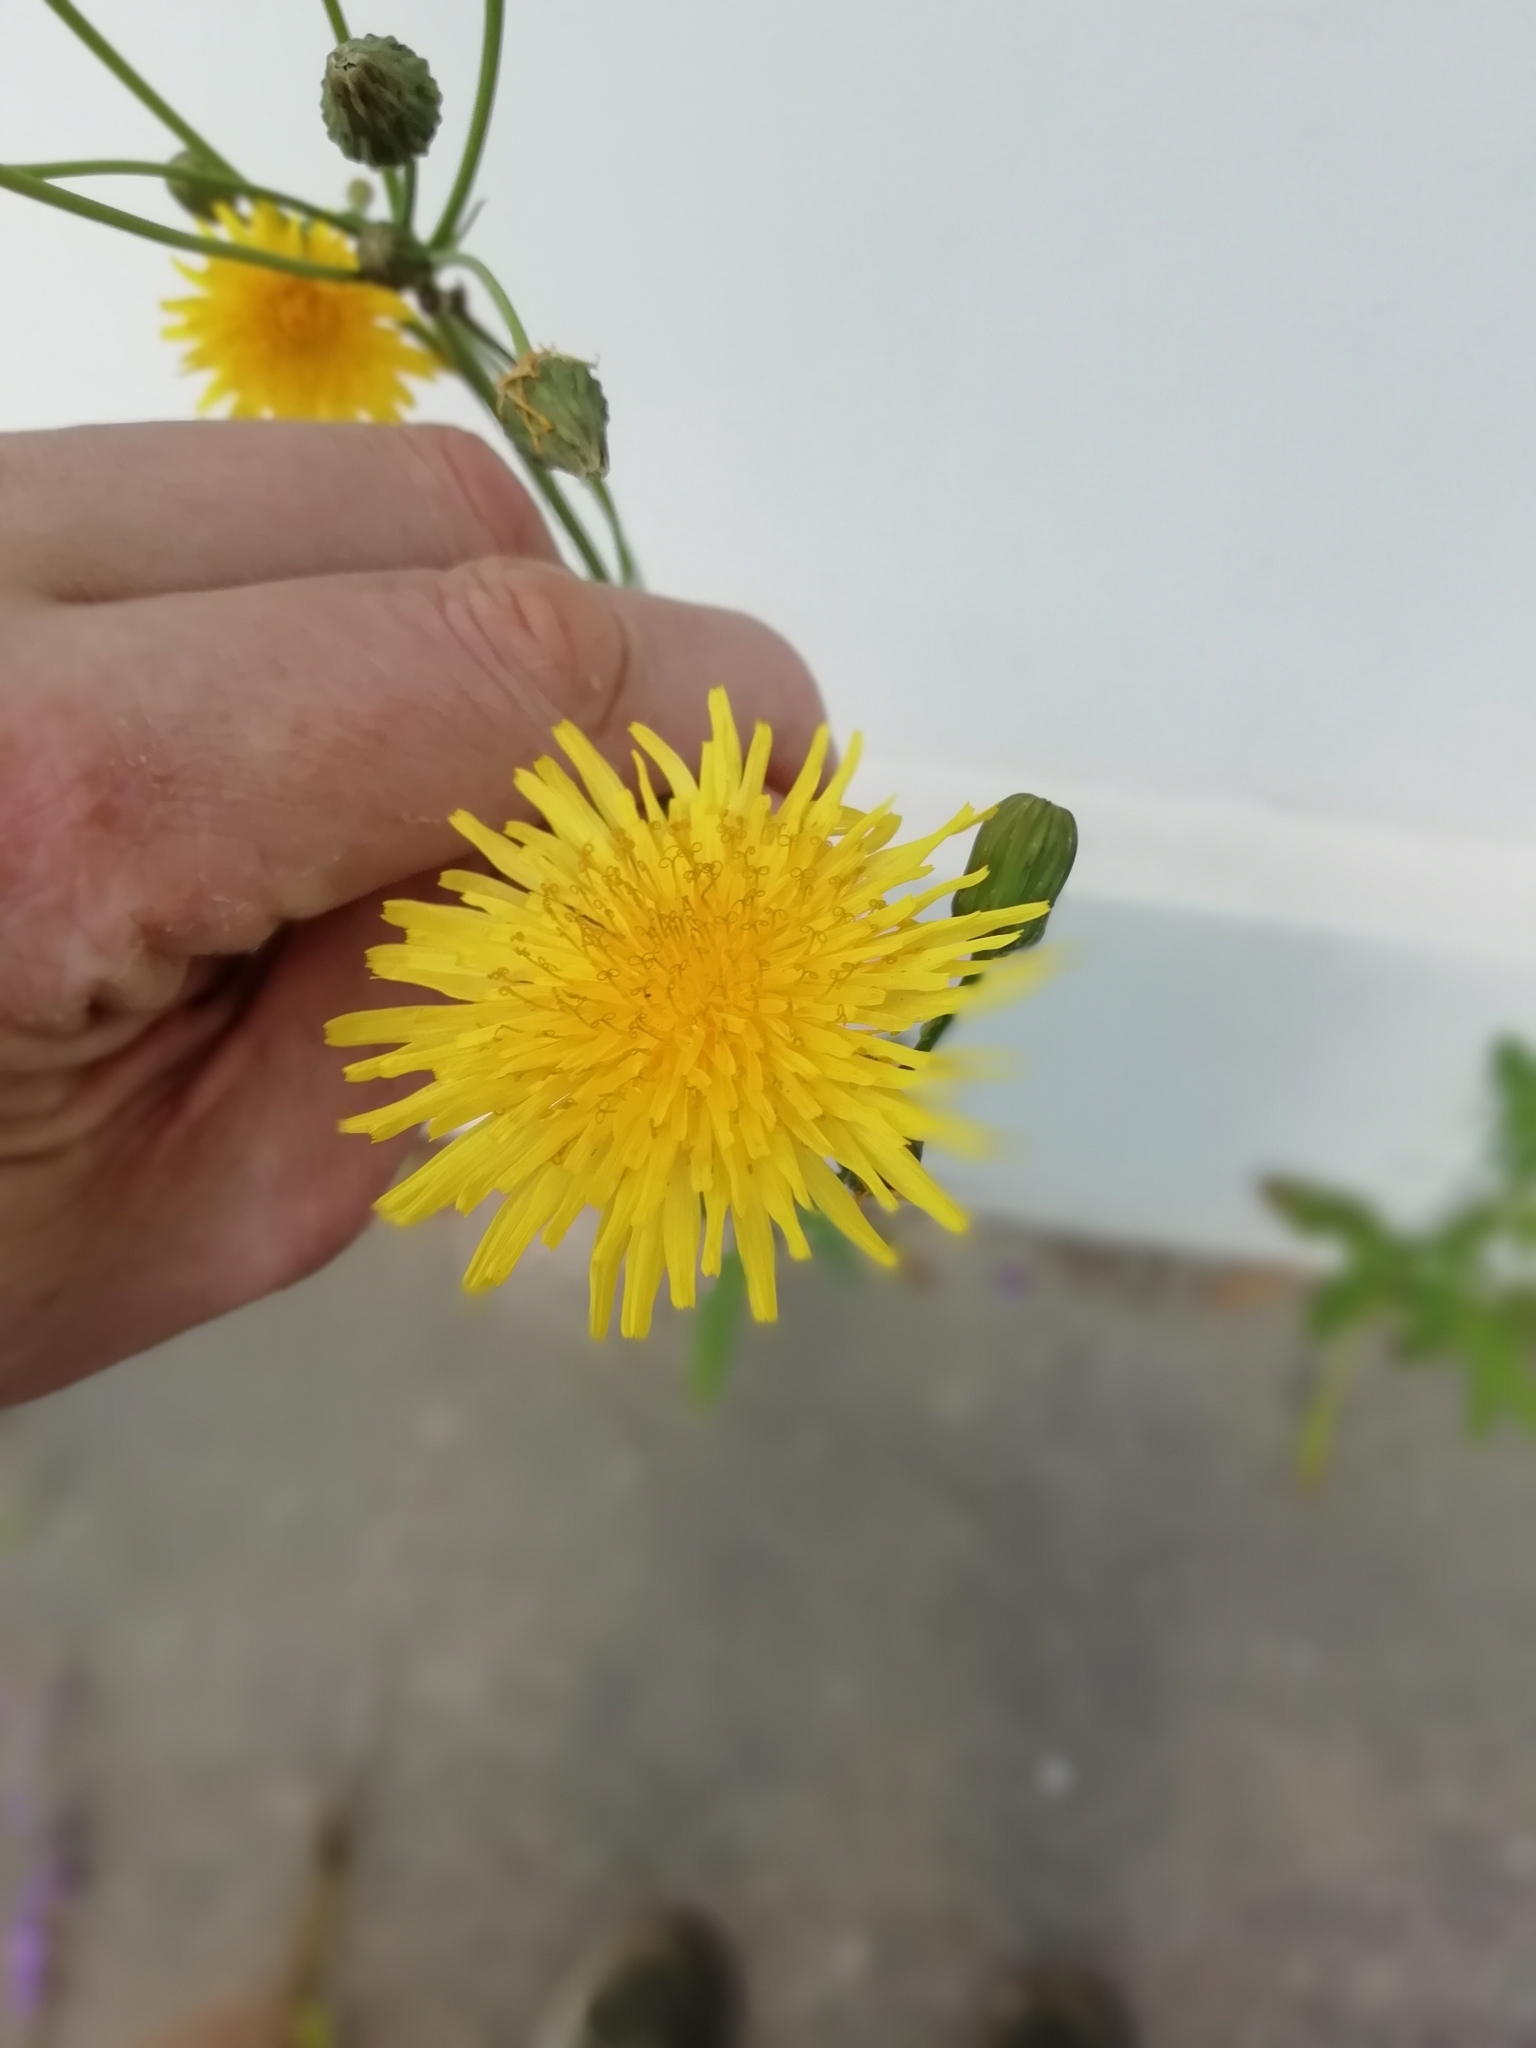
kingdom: Plantae
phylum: Tracheophyta
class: Magnoliopsida
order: Asterales
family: Asteraceae
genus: Sonchus
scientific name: Sonchus arvensis
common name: Perennial sow-thistle
